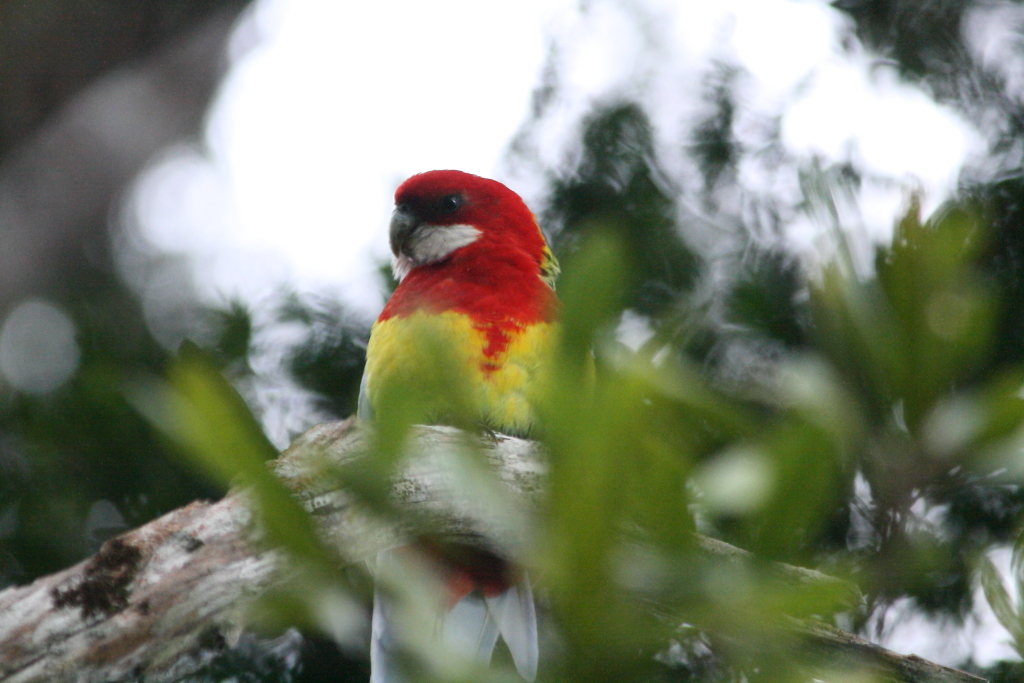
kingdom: Animalia
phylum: Chordata
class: Aves
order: Psittaciformes
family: Psittacidae
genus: Platycercus
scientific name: Platycercus eximius
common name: Eastern rosella
